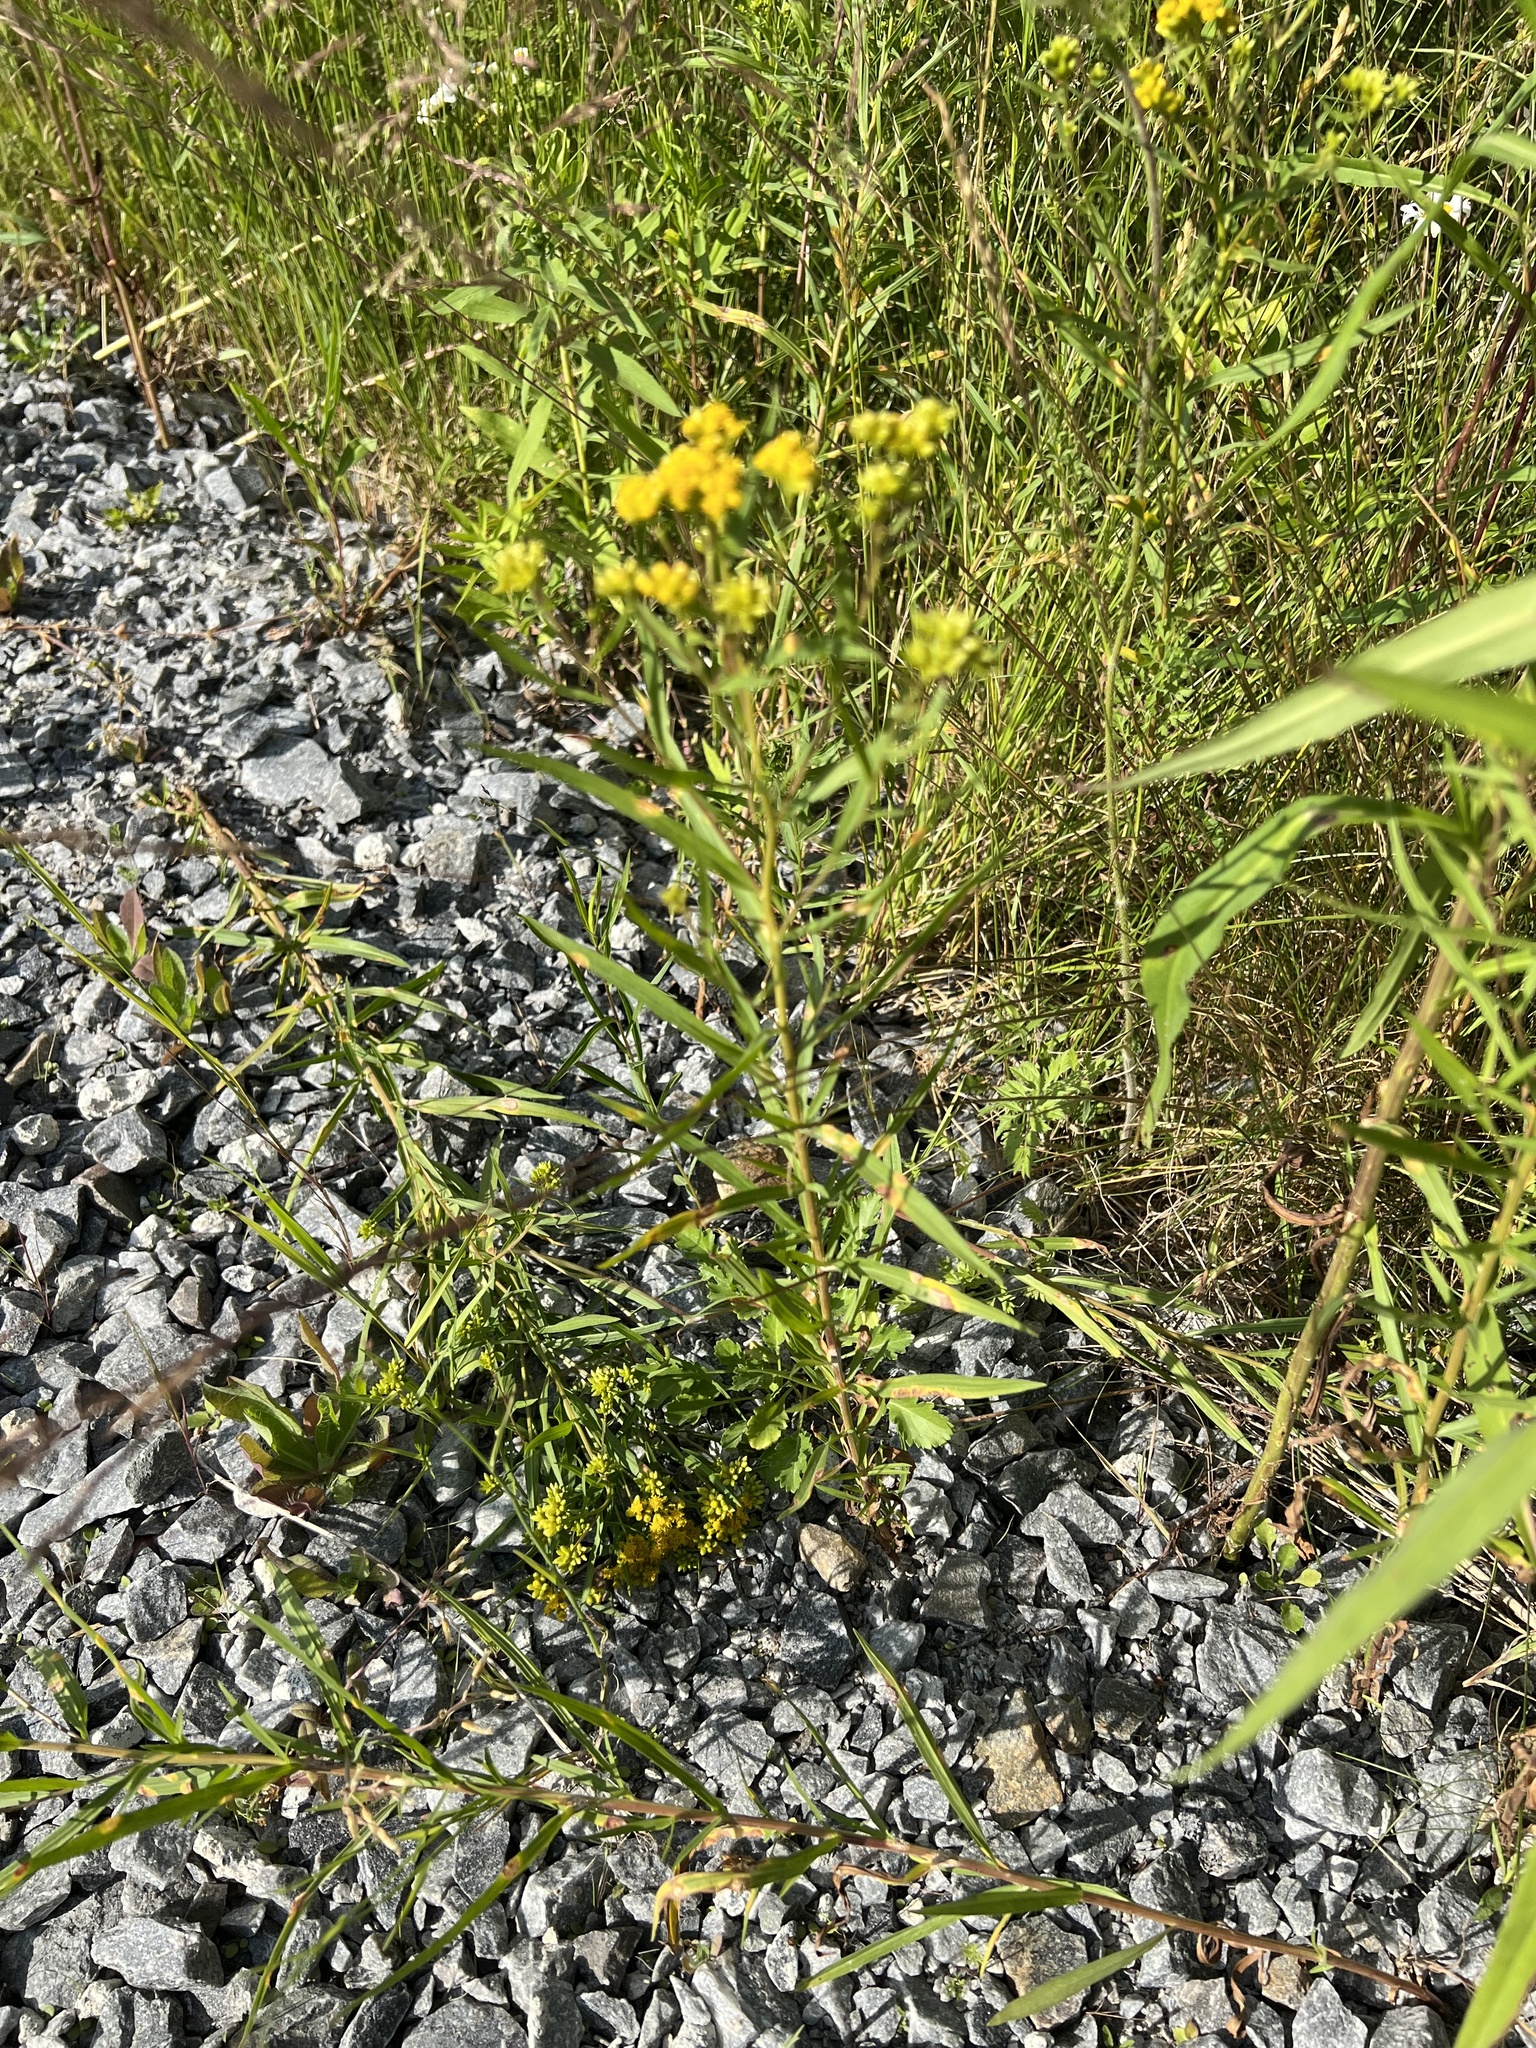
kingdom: Plantae
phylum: Tracheophyta
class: Magnoliopsida
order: Asterales
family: Asteraceae
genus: Euthamia
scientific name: Euthamia graminifolia
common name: Common goldentop
